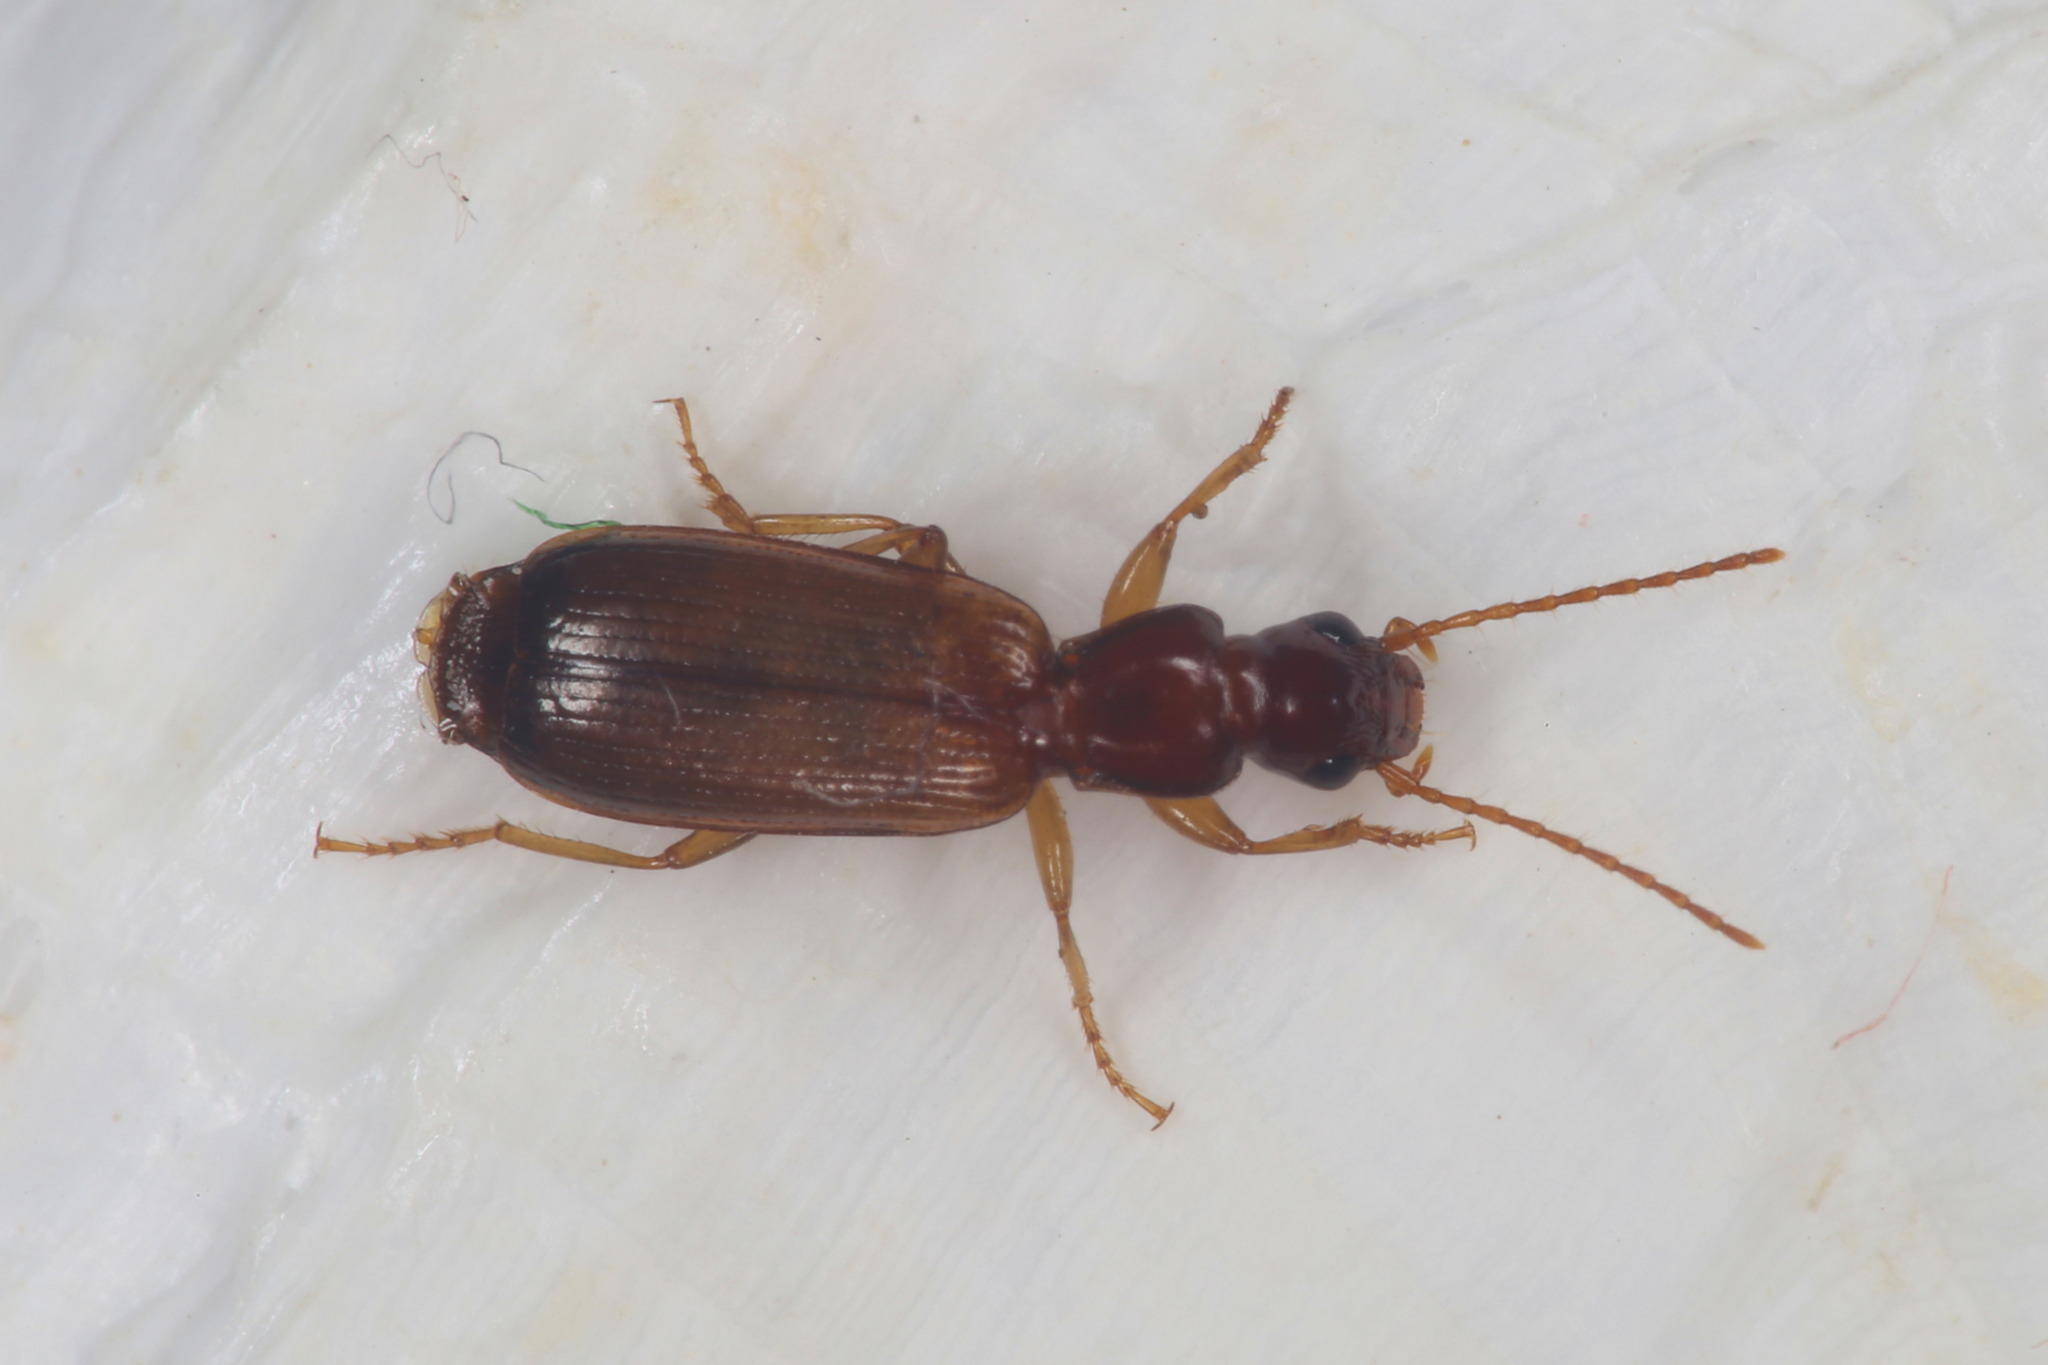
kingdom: Animalia
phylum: Arthropoda
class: Insecta
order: Coleoptera
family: Carabidae
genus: Paradromius
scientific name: Paradromius linearis
